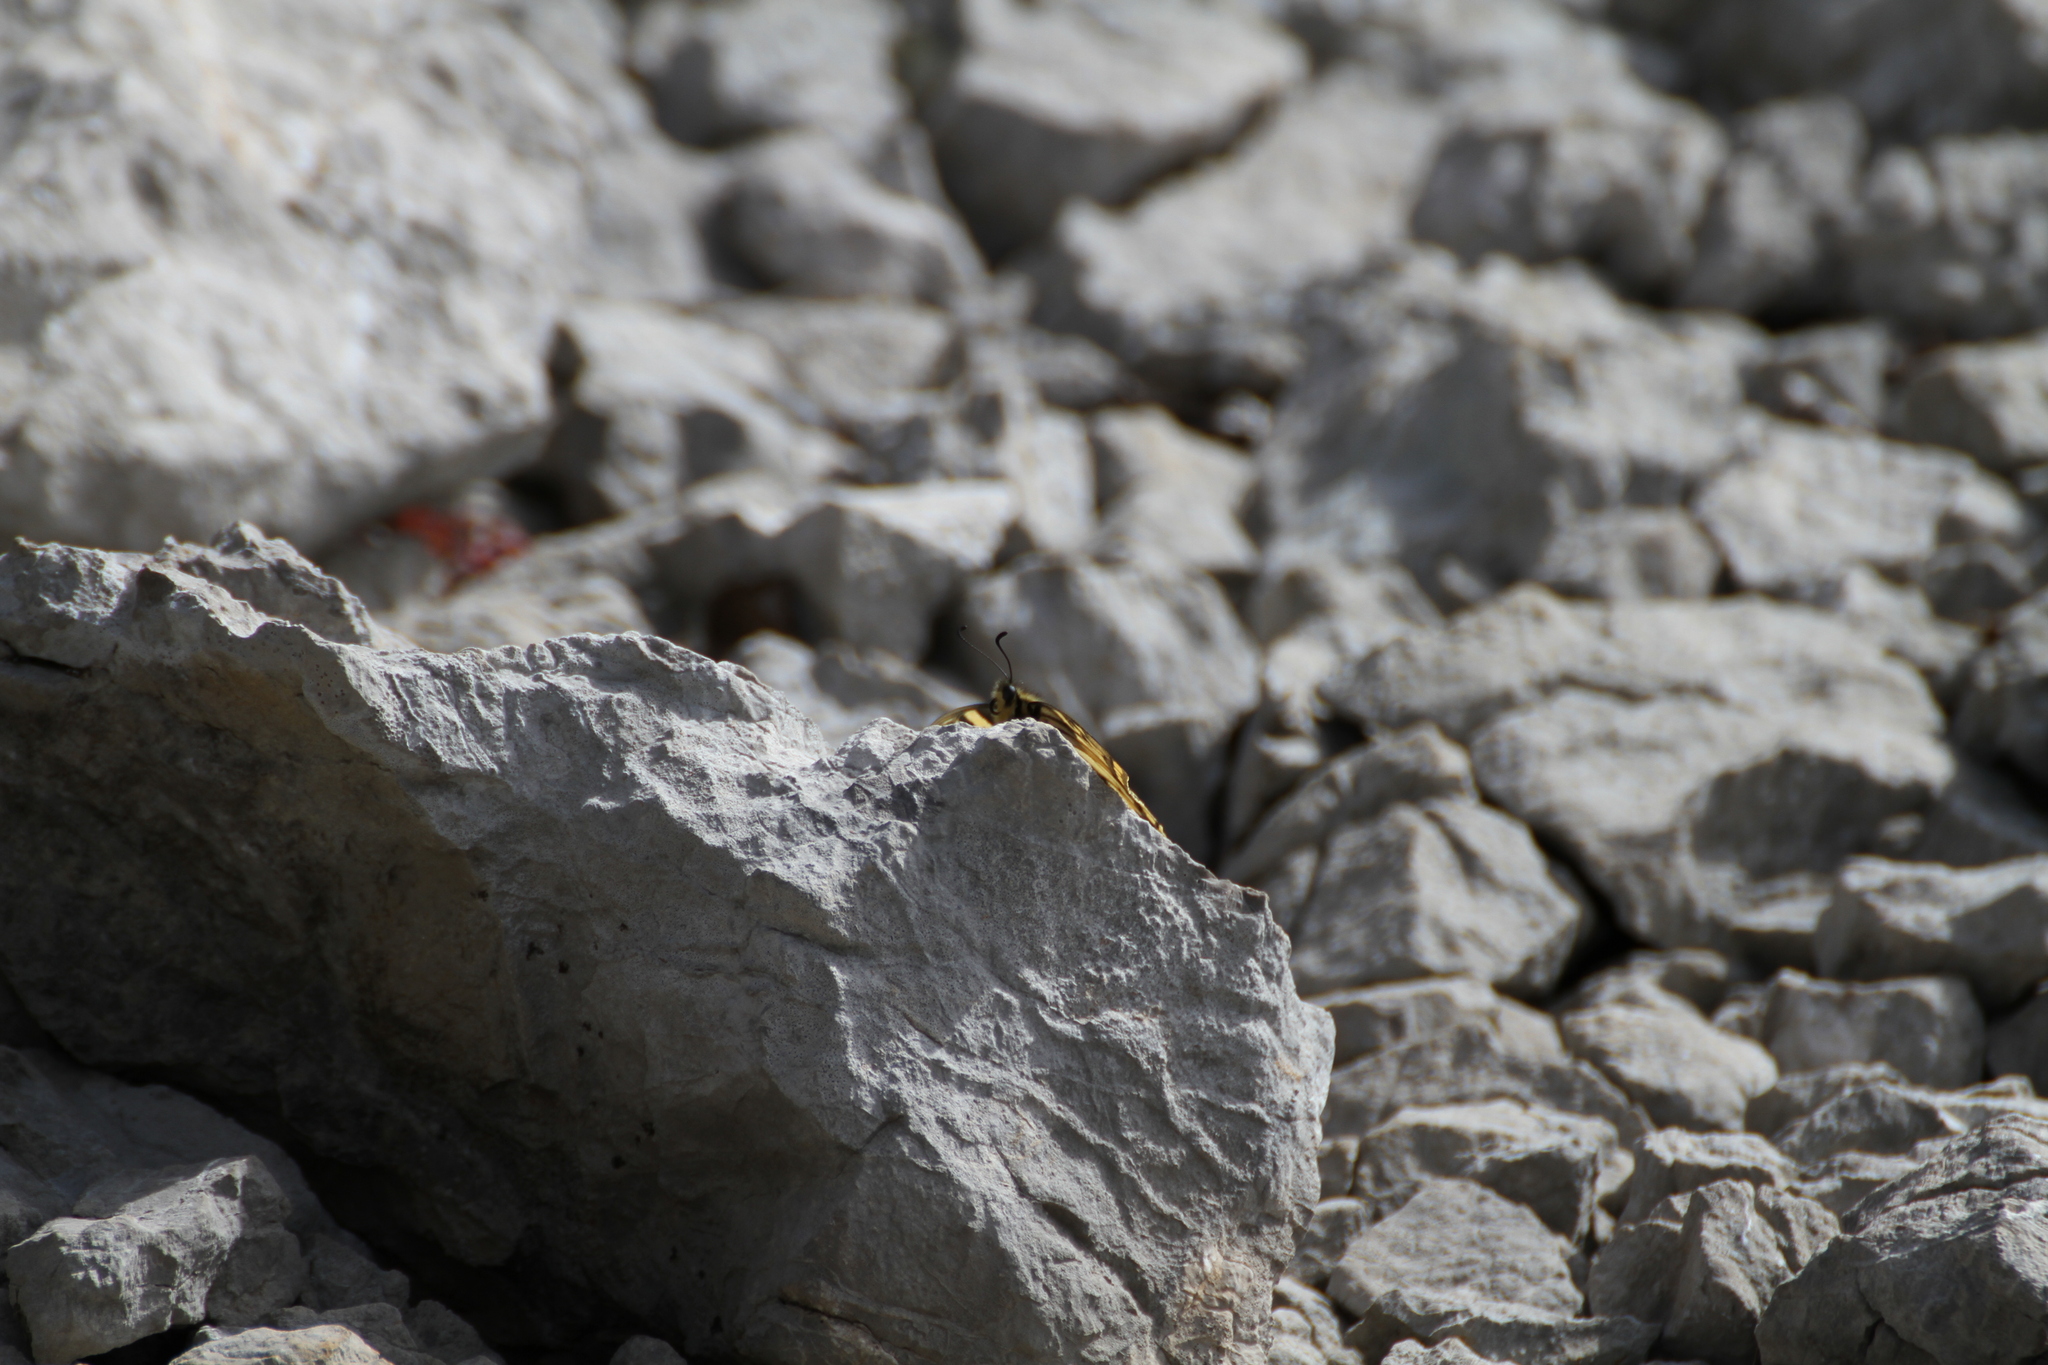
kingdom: Animalia
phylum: Arthropoda
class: Insecta
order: Lepidoptera
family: Papilionidae
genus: Papilio
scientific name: Papilio machaon
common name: Swallowtail
